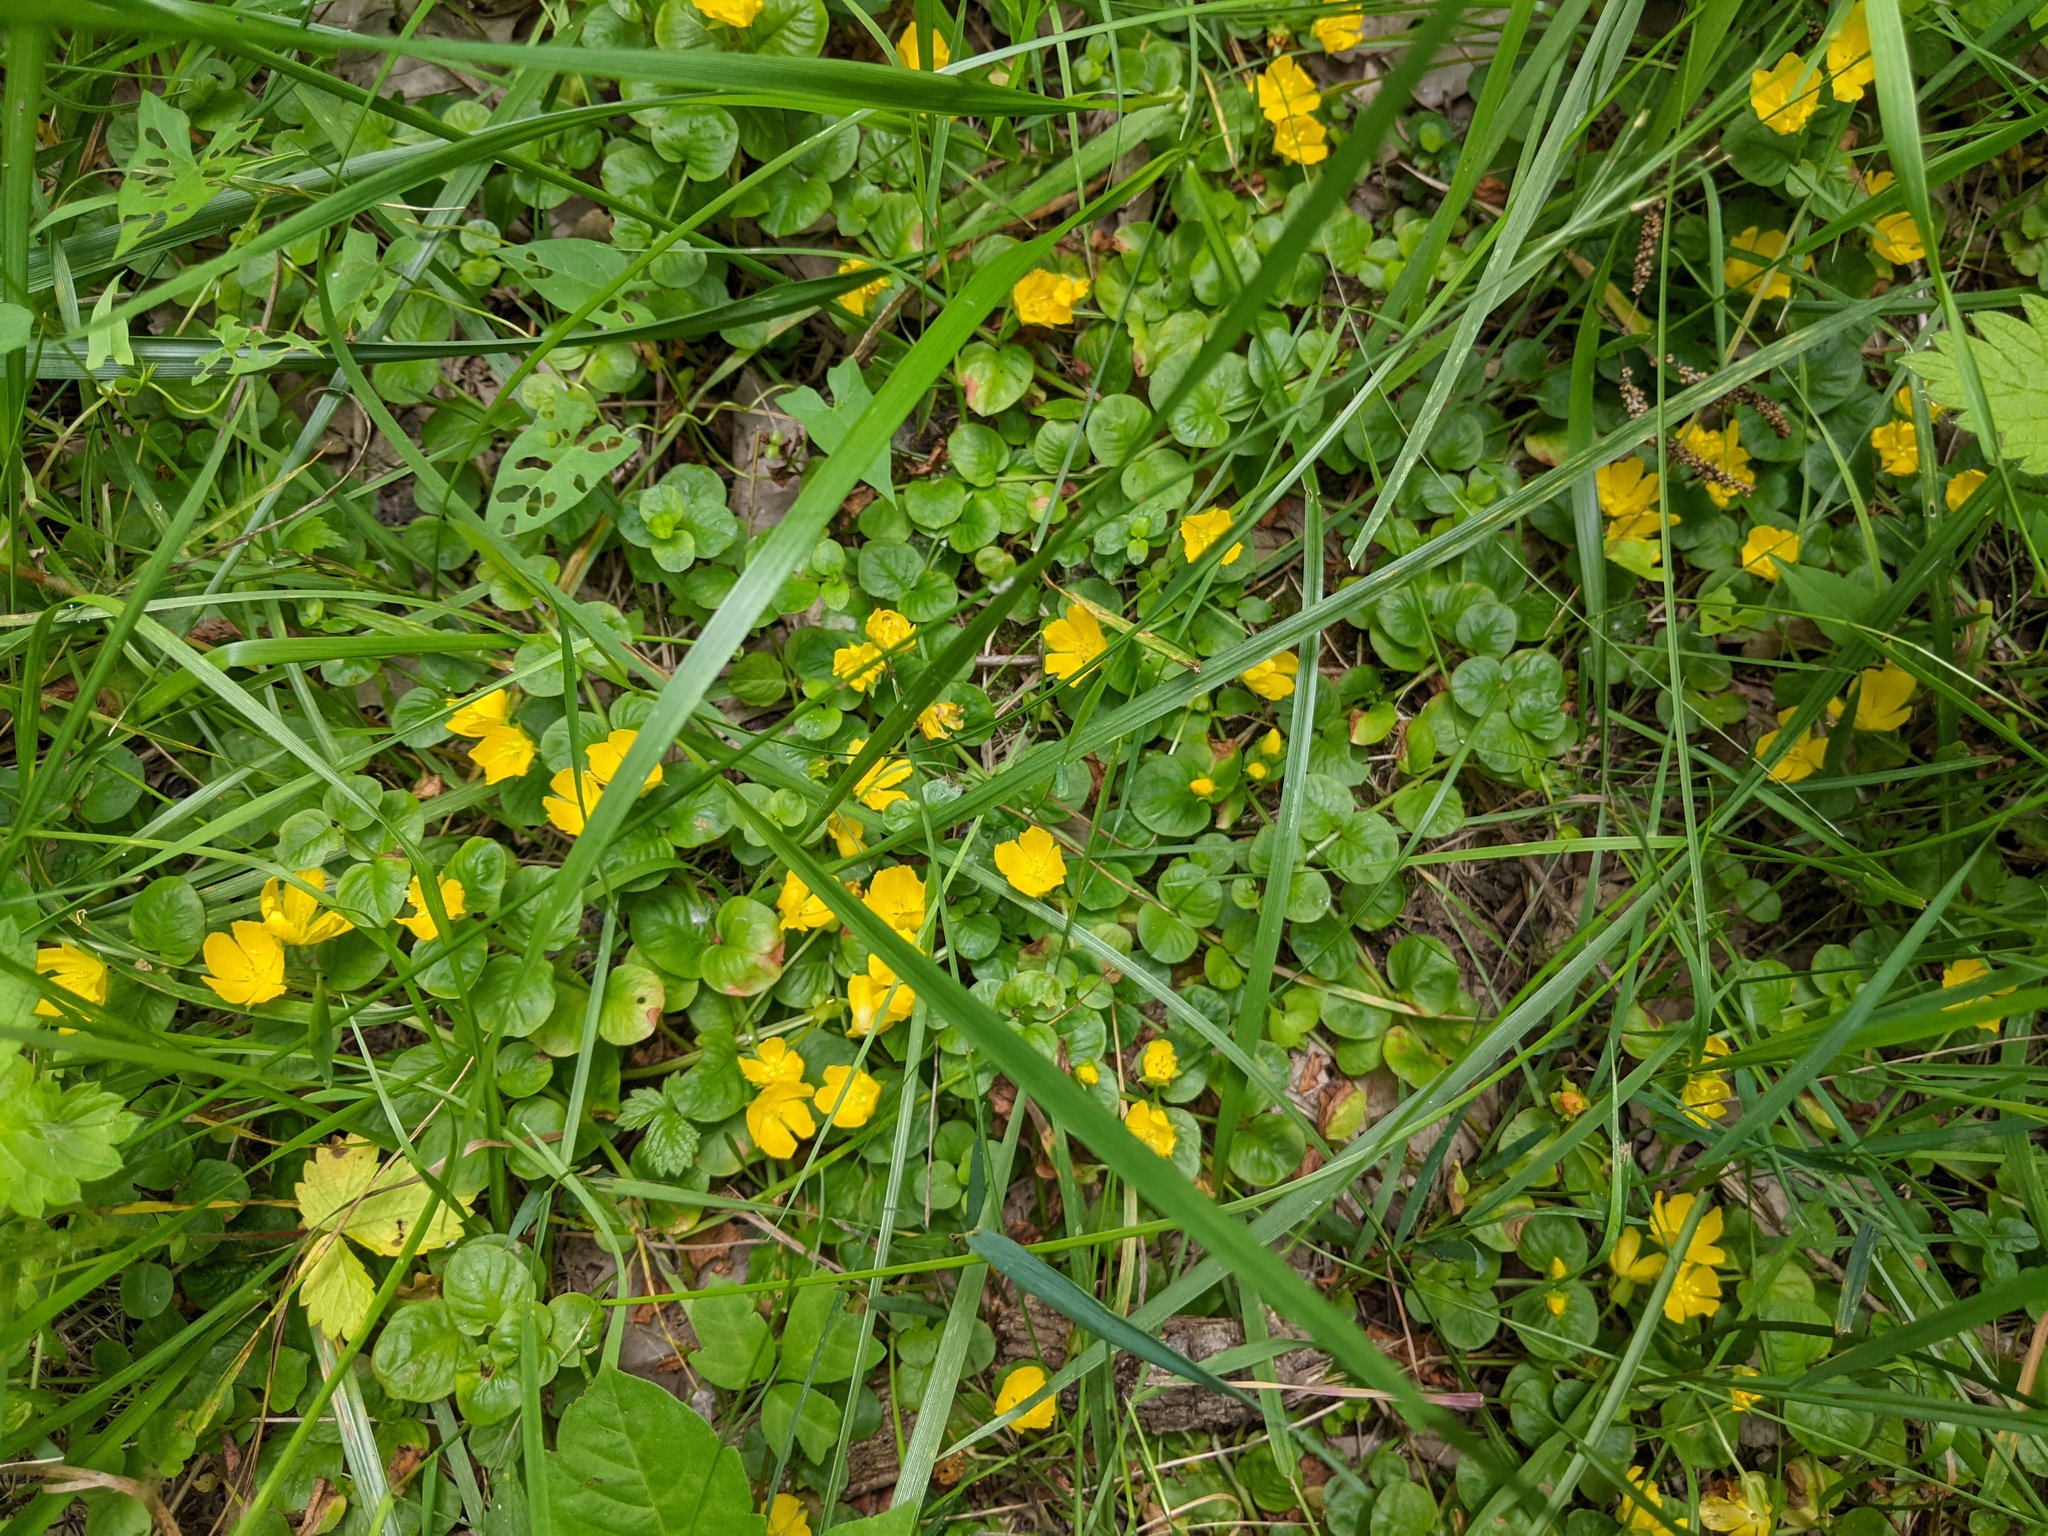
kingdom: Plantae
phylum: Tracheophyta
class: Magnoliopsida
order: Ericales
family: Primulaceae
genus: Lysimachia
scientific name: Lysimachia nummularia
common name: Moneywort
